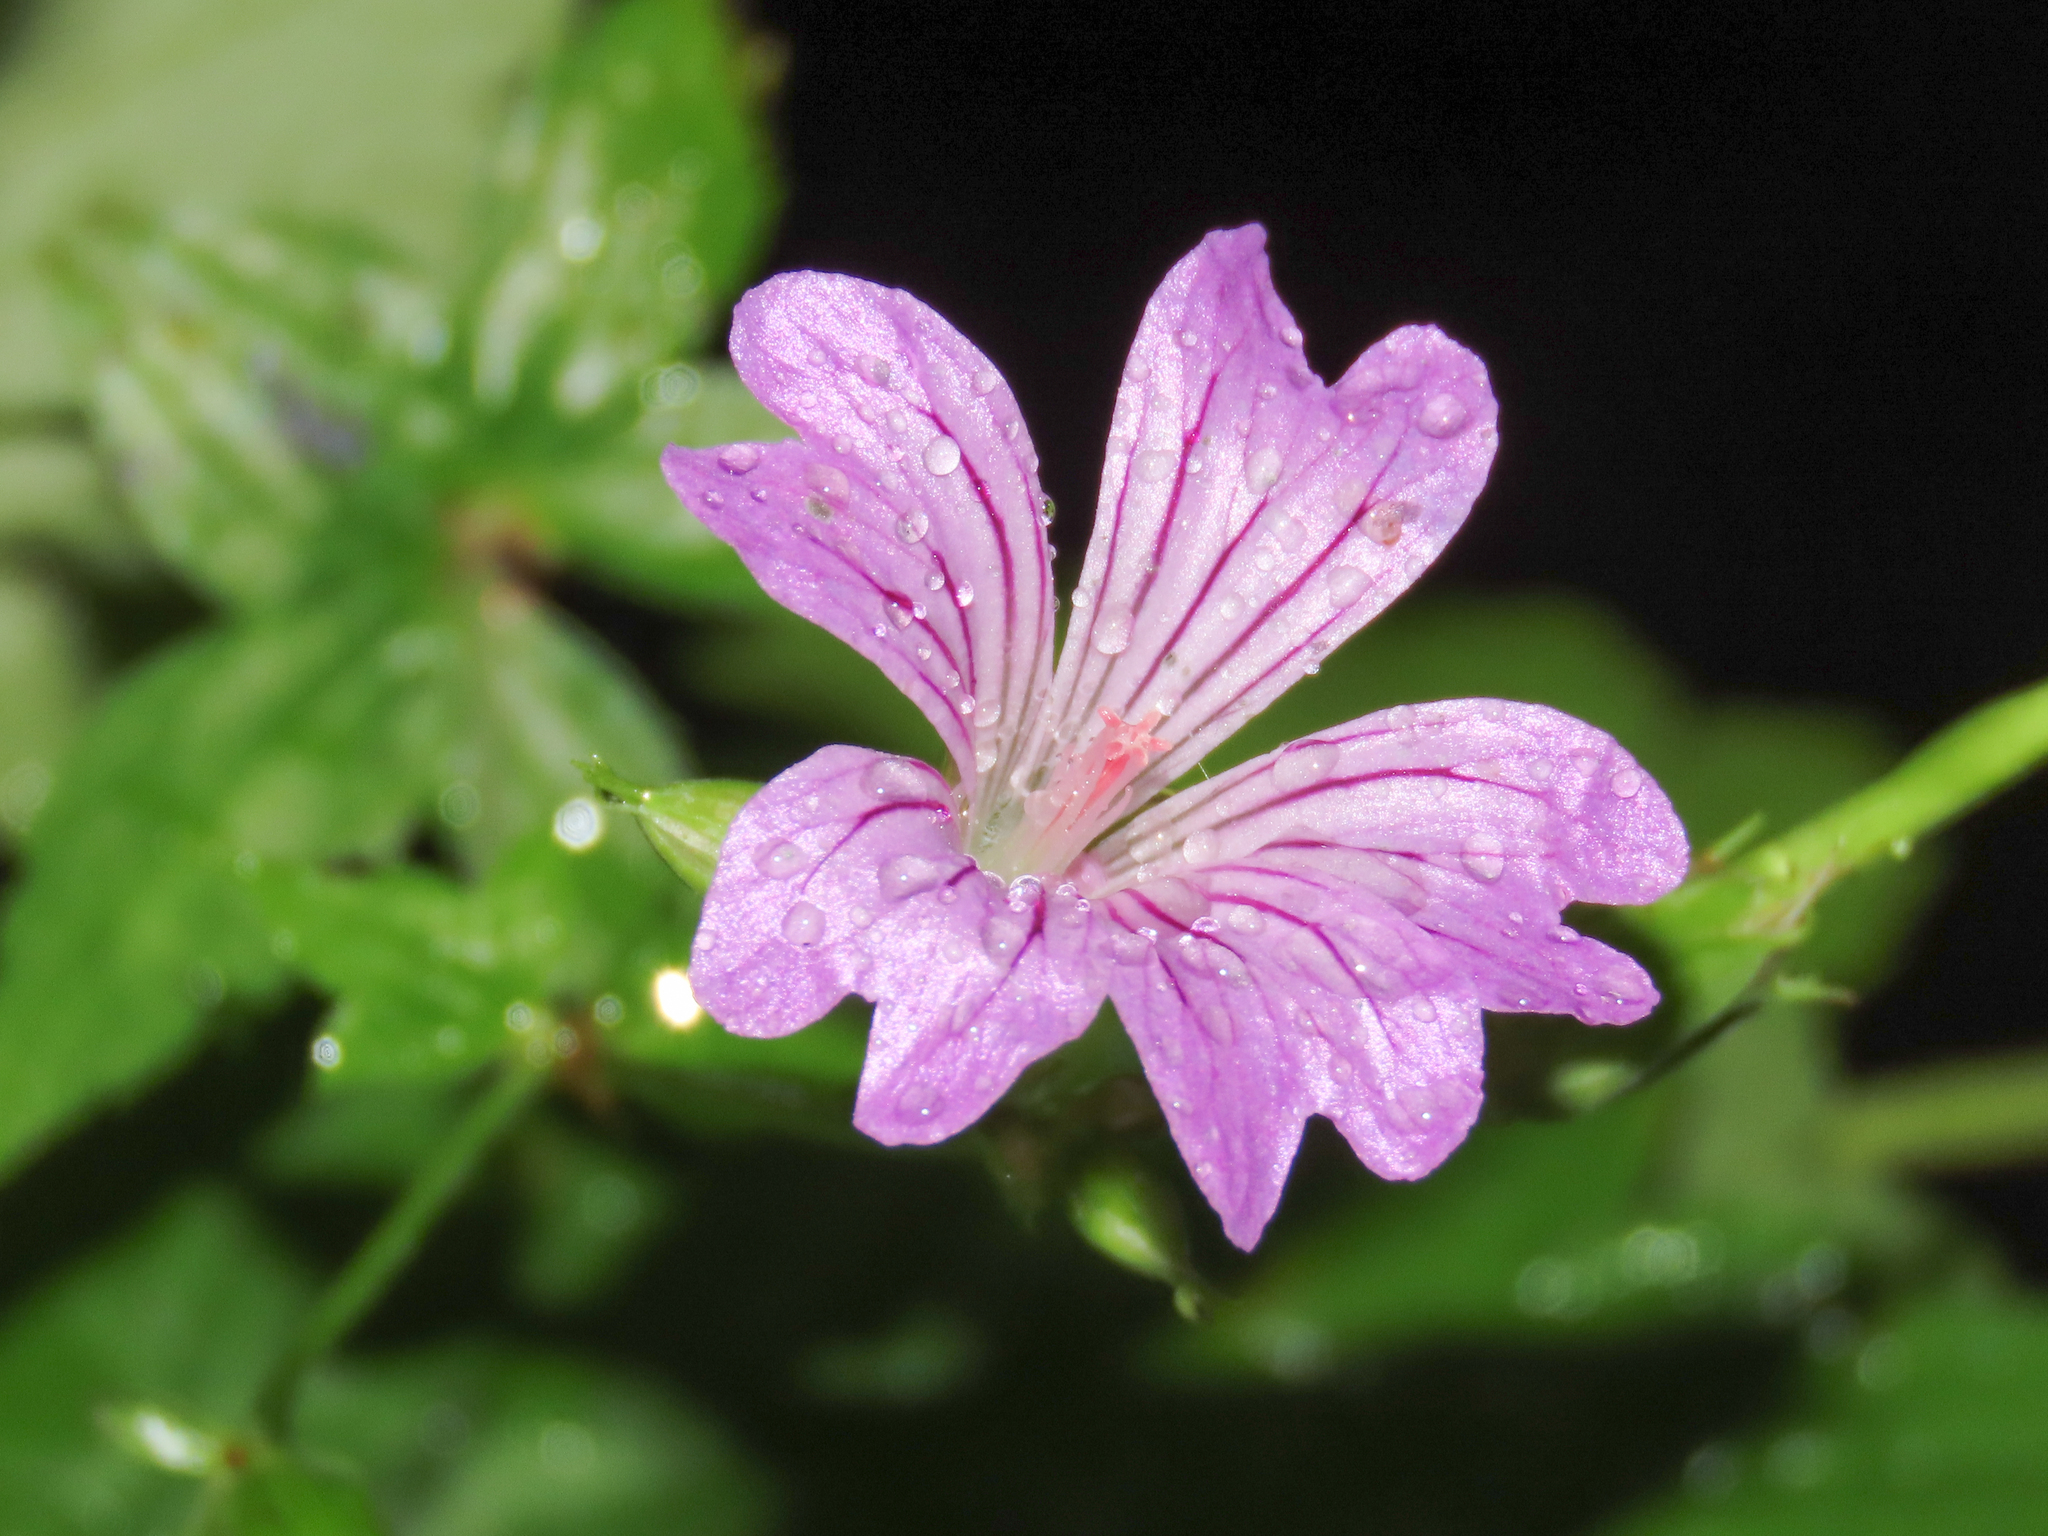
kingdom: Plantae
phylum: Tracheophyta
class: Magnoliopsida
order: Geraniales
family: Geraniaceae
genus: Geranium
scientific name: Geranium nodosum
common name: Knotted crane's-bill
